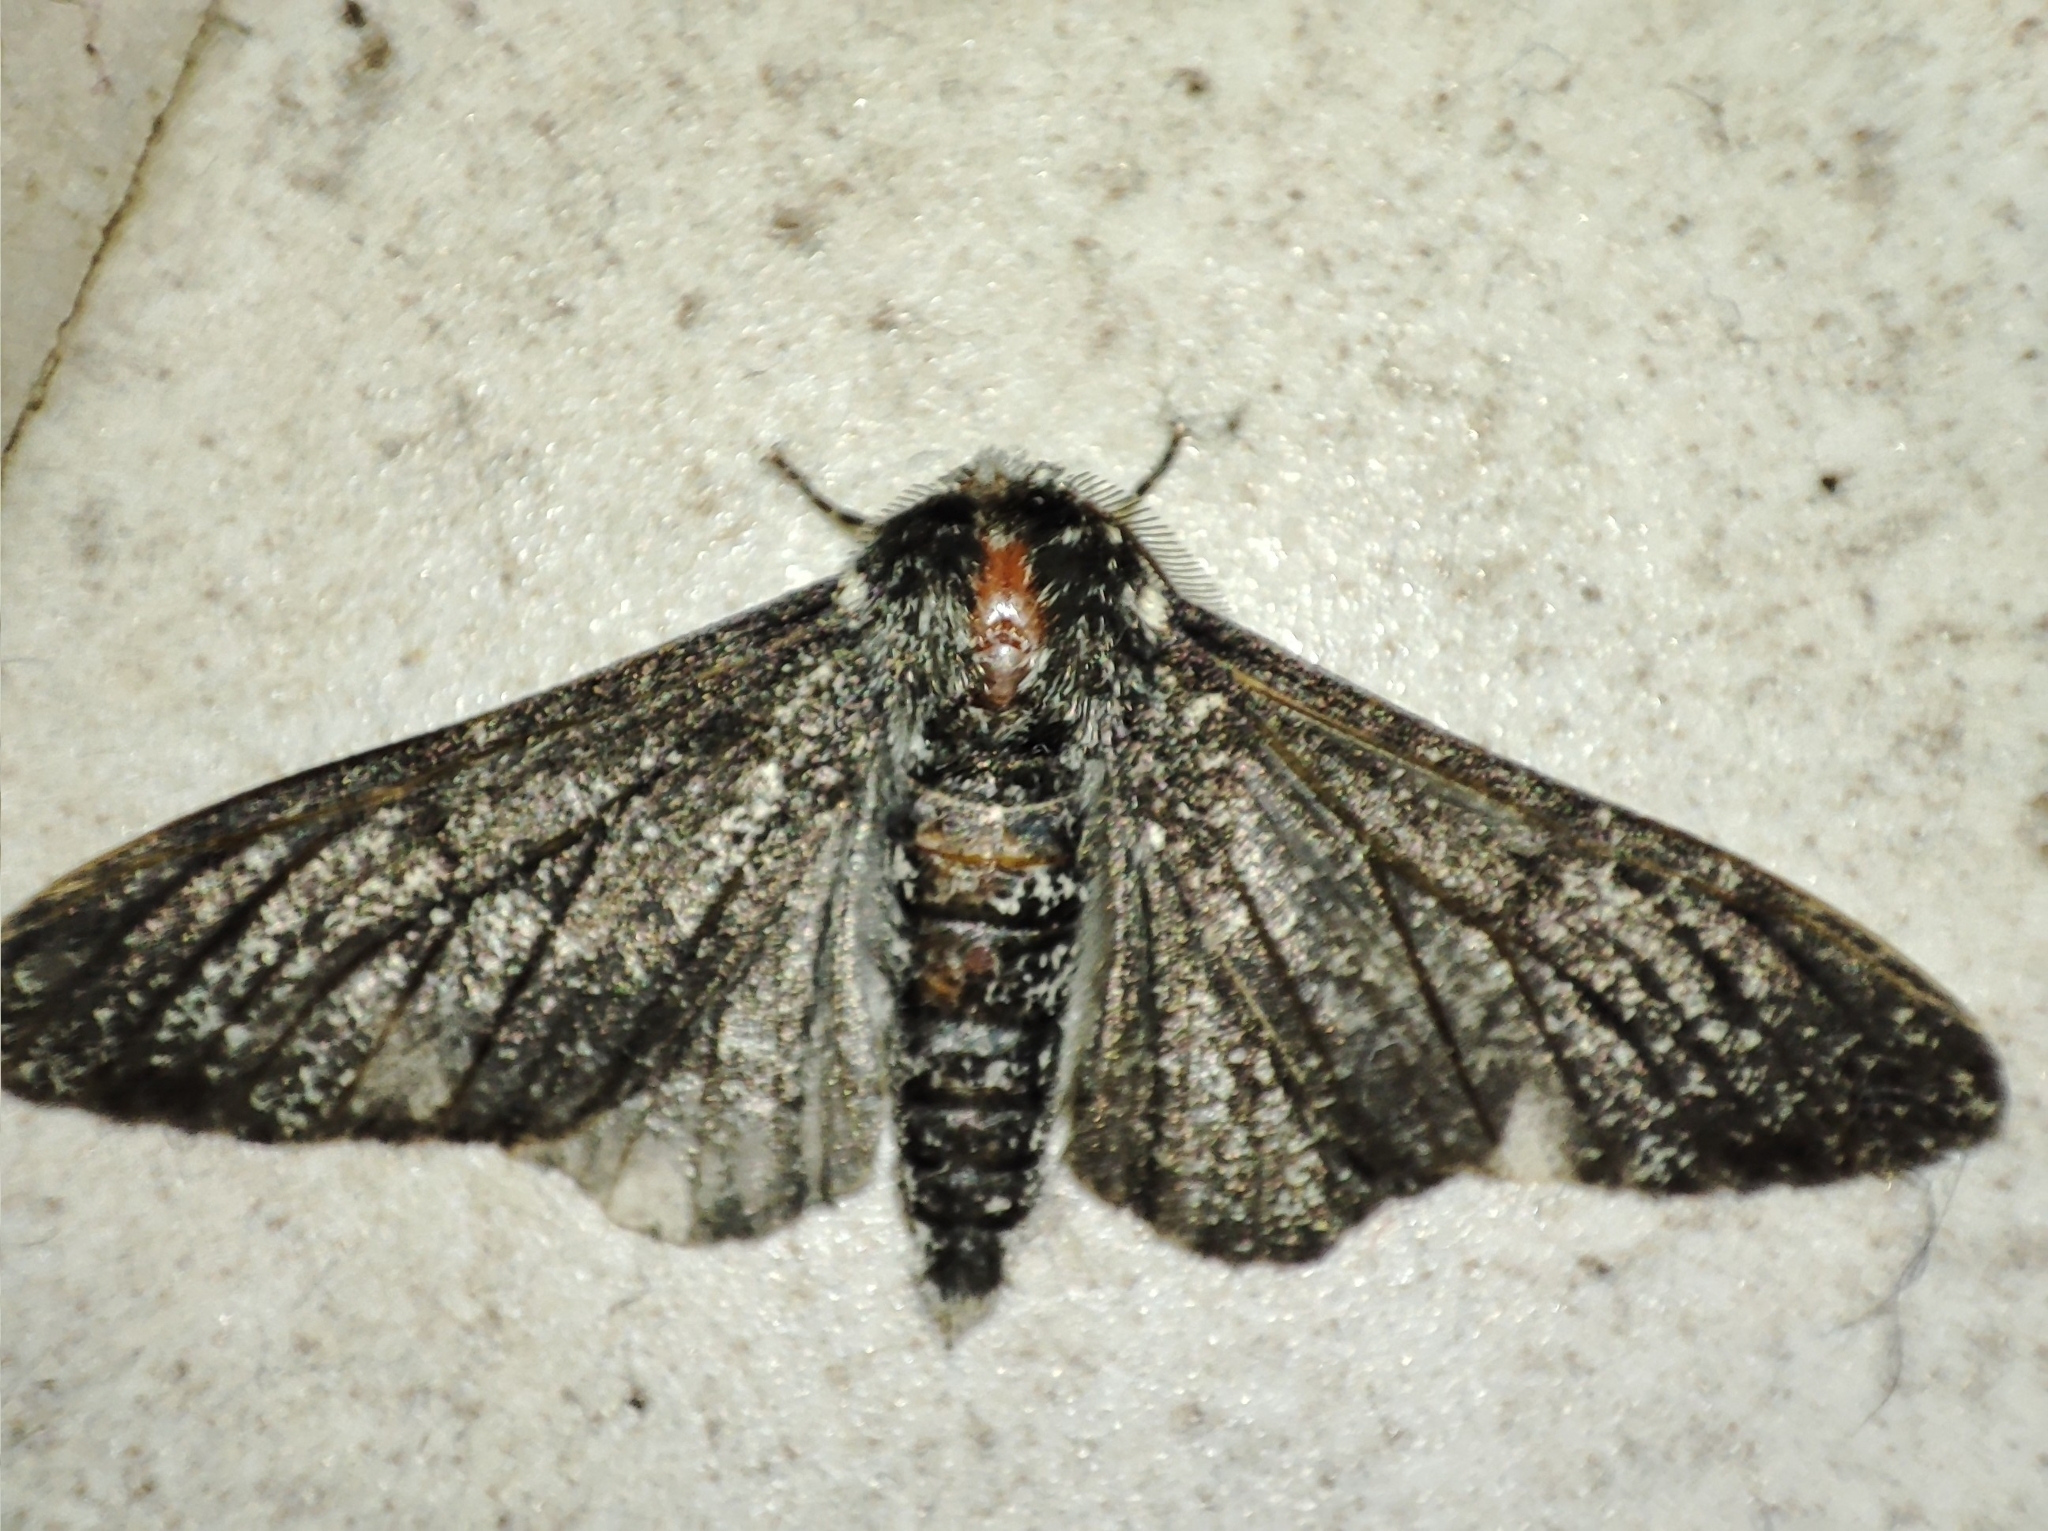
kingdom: Animalia
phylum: Arthropoda
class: Insecta
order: Lepidoptera
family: Geometridae
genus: Biston
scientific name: Biston betularia
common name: Peppered moth
